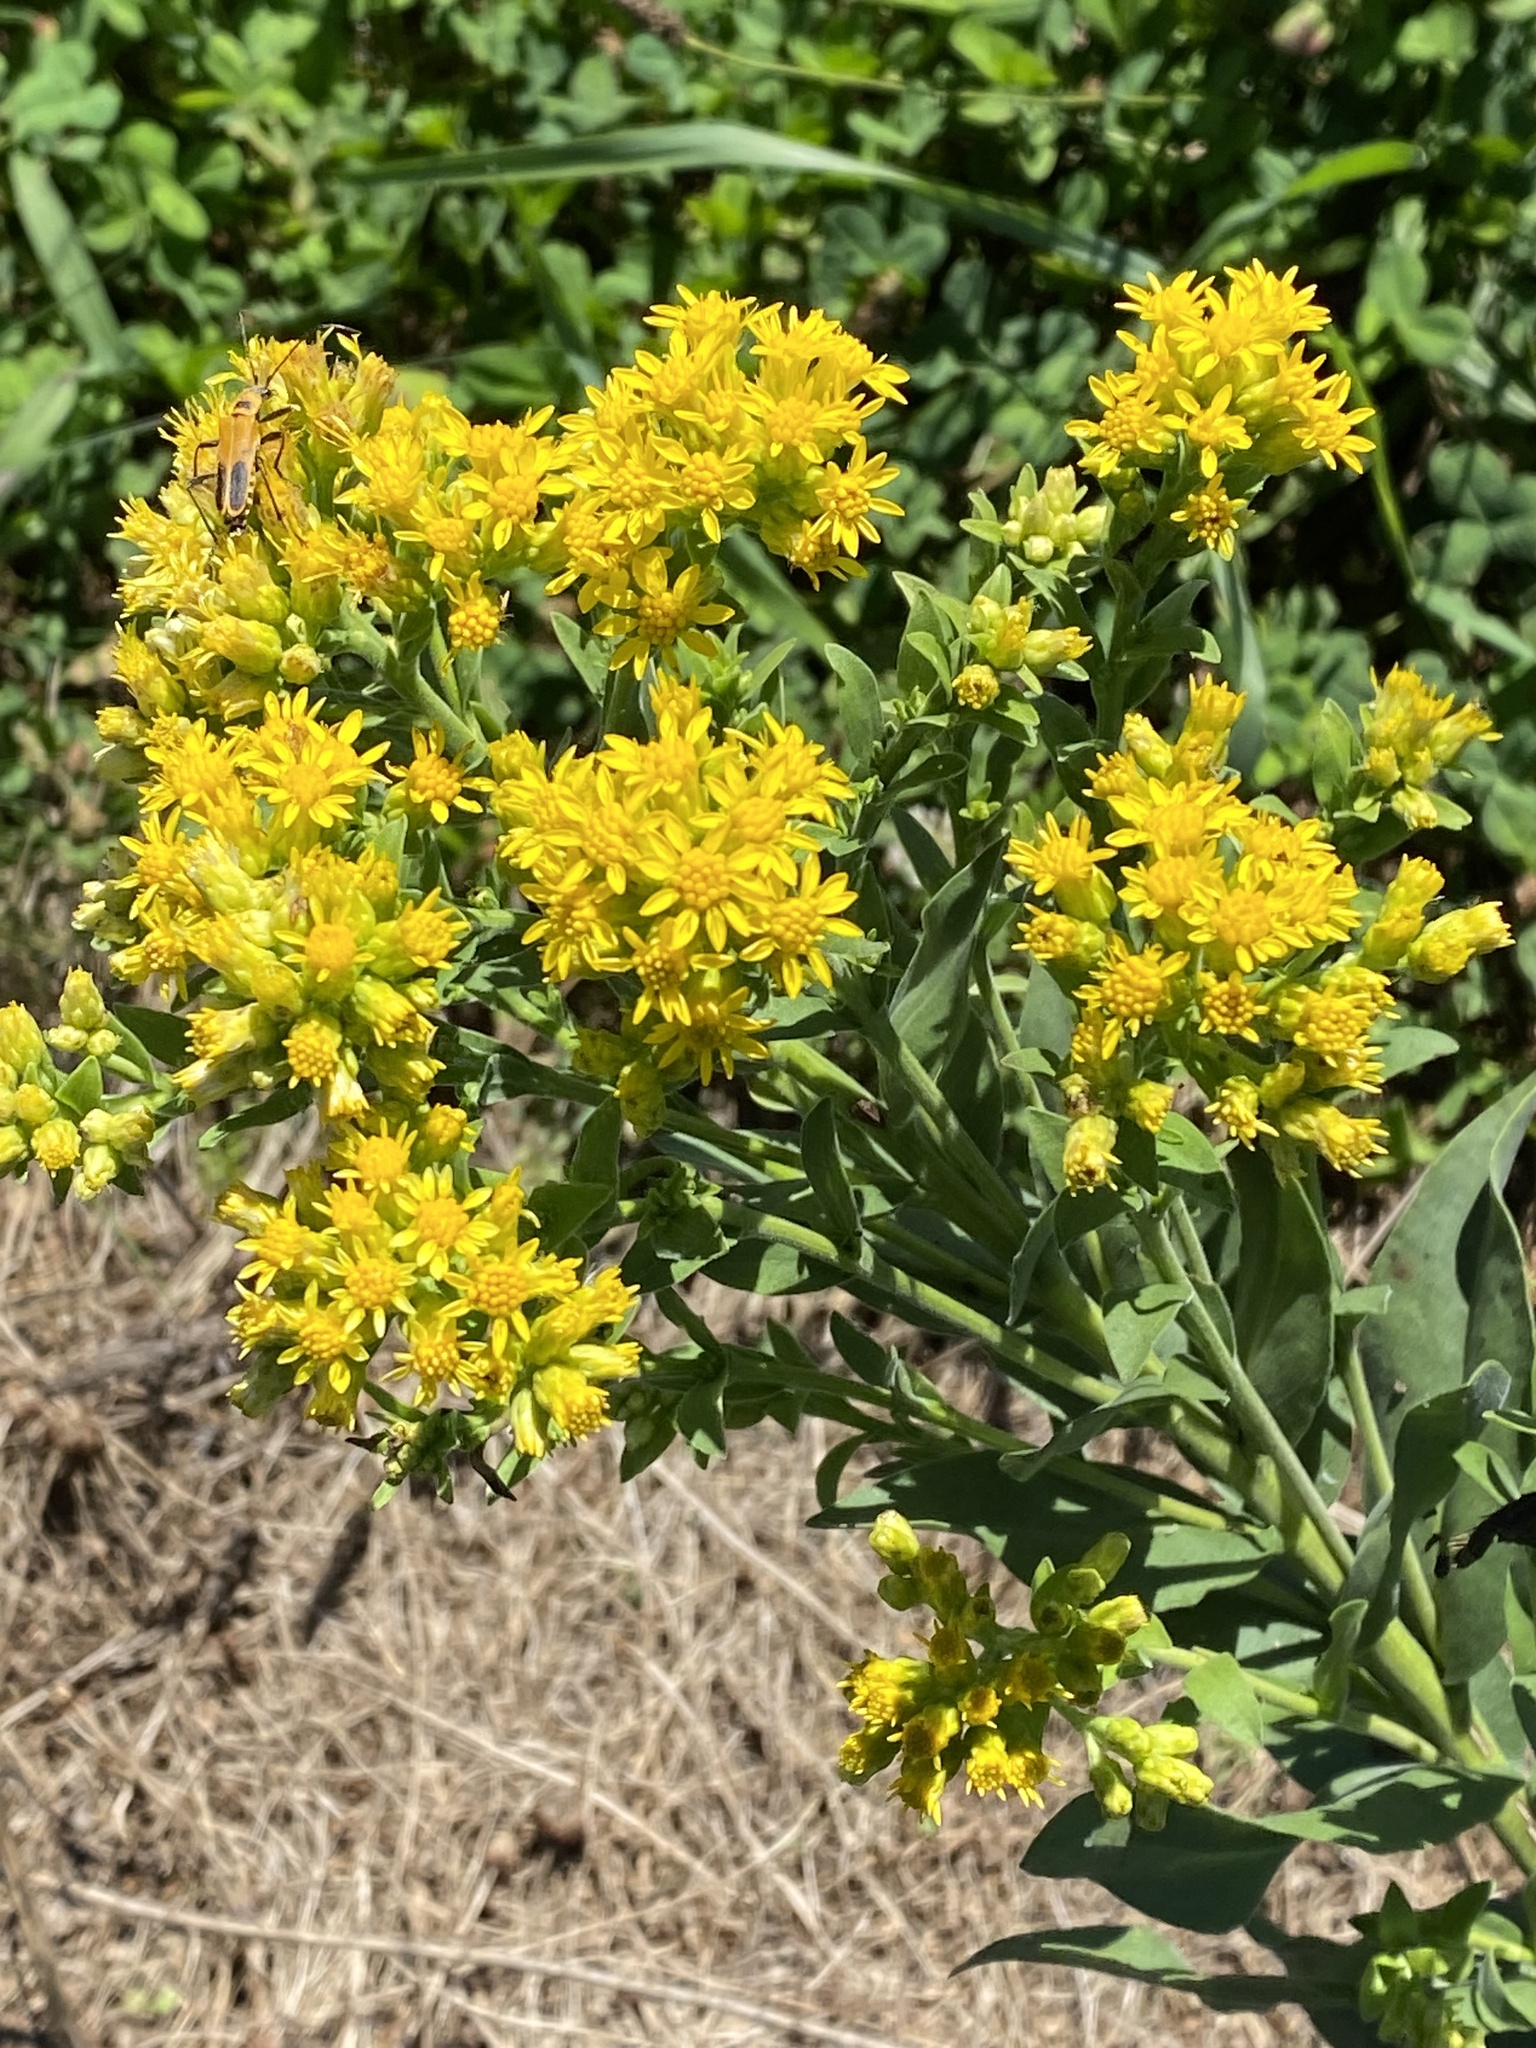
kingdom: Plantae
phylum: Tracheophyta
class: Magnoliopsida
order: Asterales
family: Asteraceae
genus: Solidago
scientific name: Solidago rigida
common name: Rigid goldenrod
